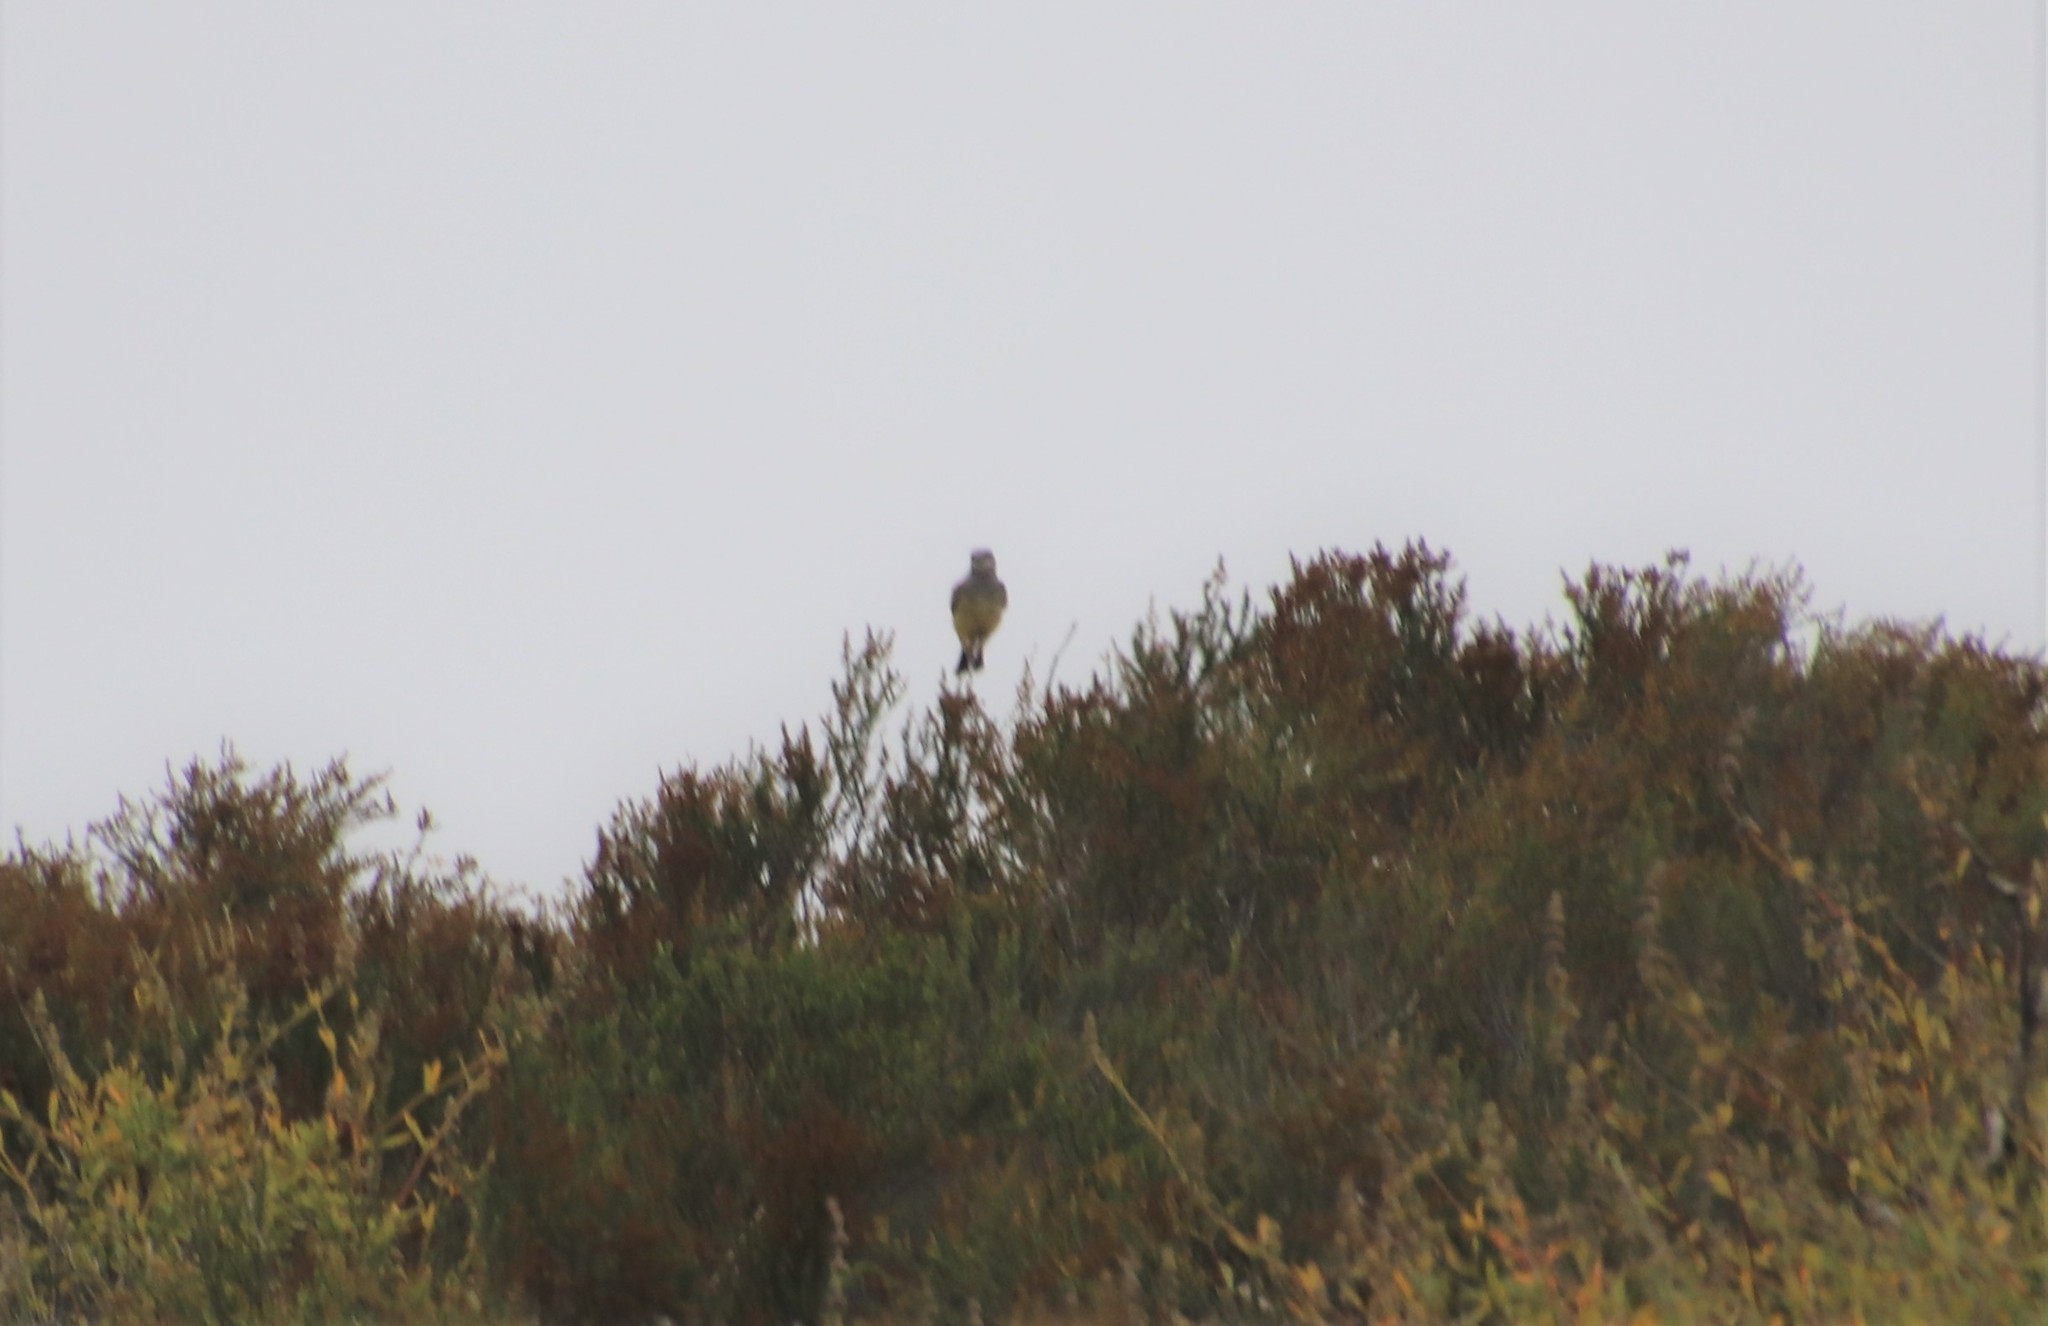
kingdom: Animalia
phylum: Chordata
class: Aves
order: Passeriformes
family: Tyrannidae
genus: Tyrannus
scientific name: Tyrannus vociferans
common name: Cassin's kingbird
